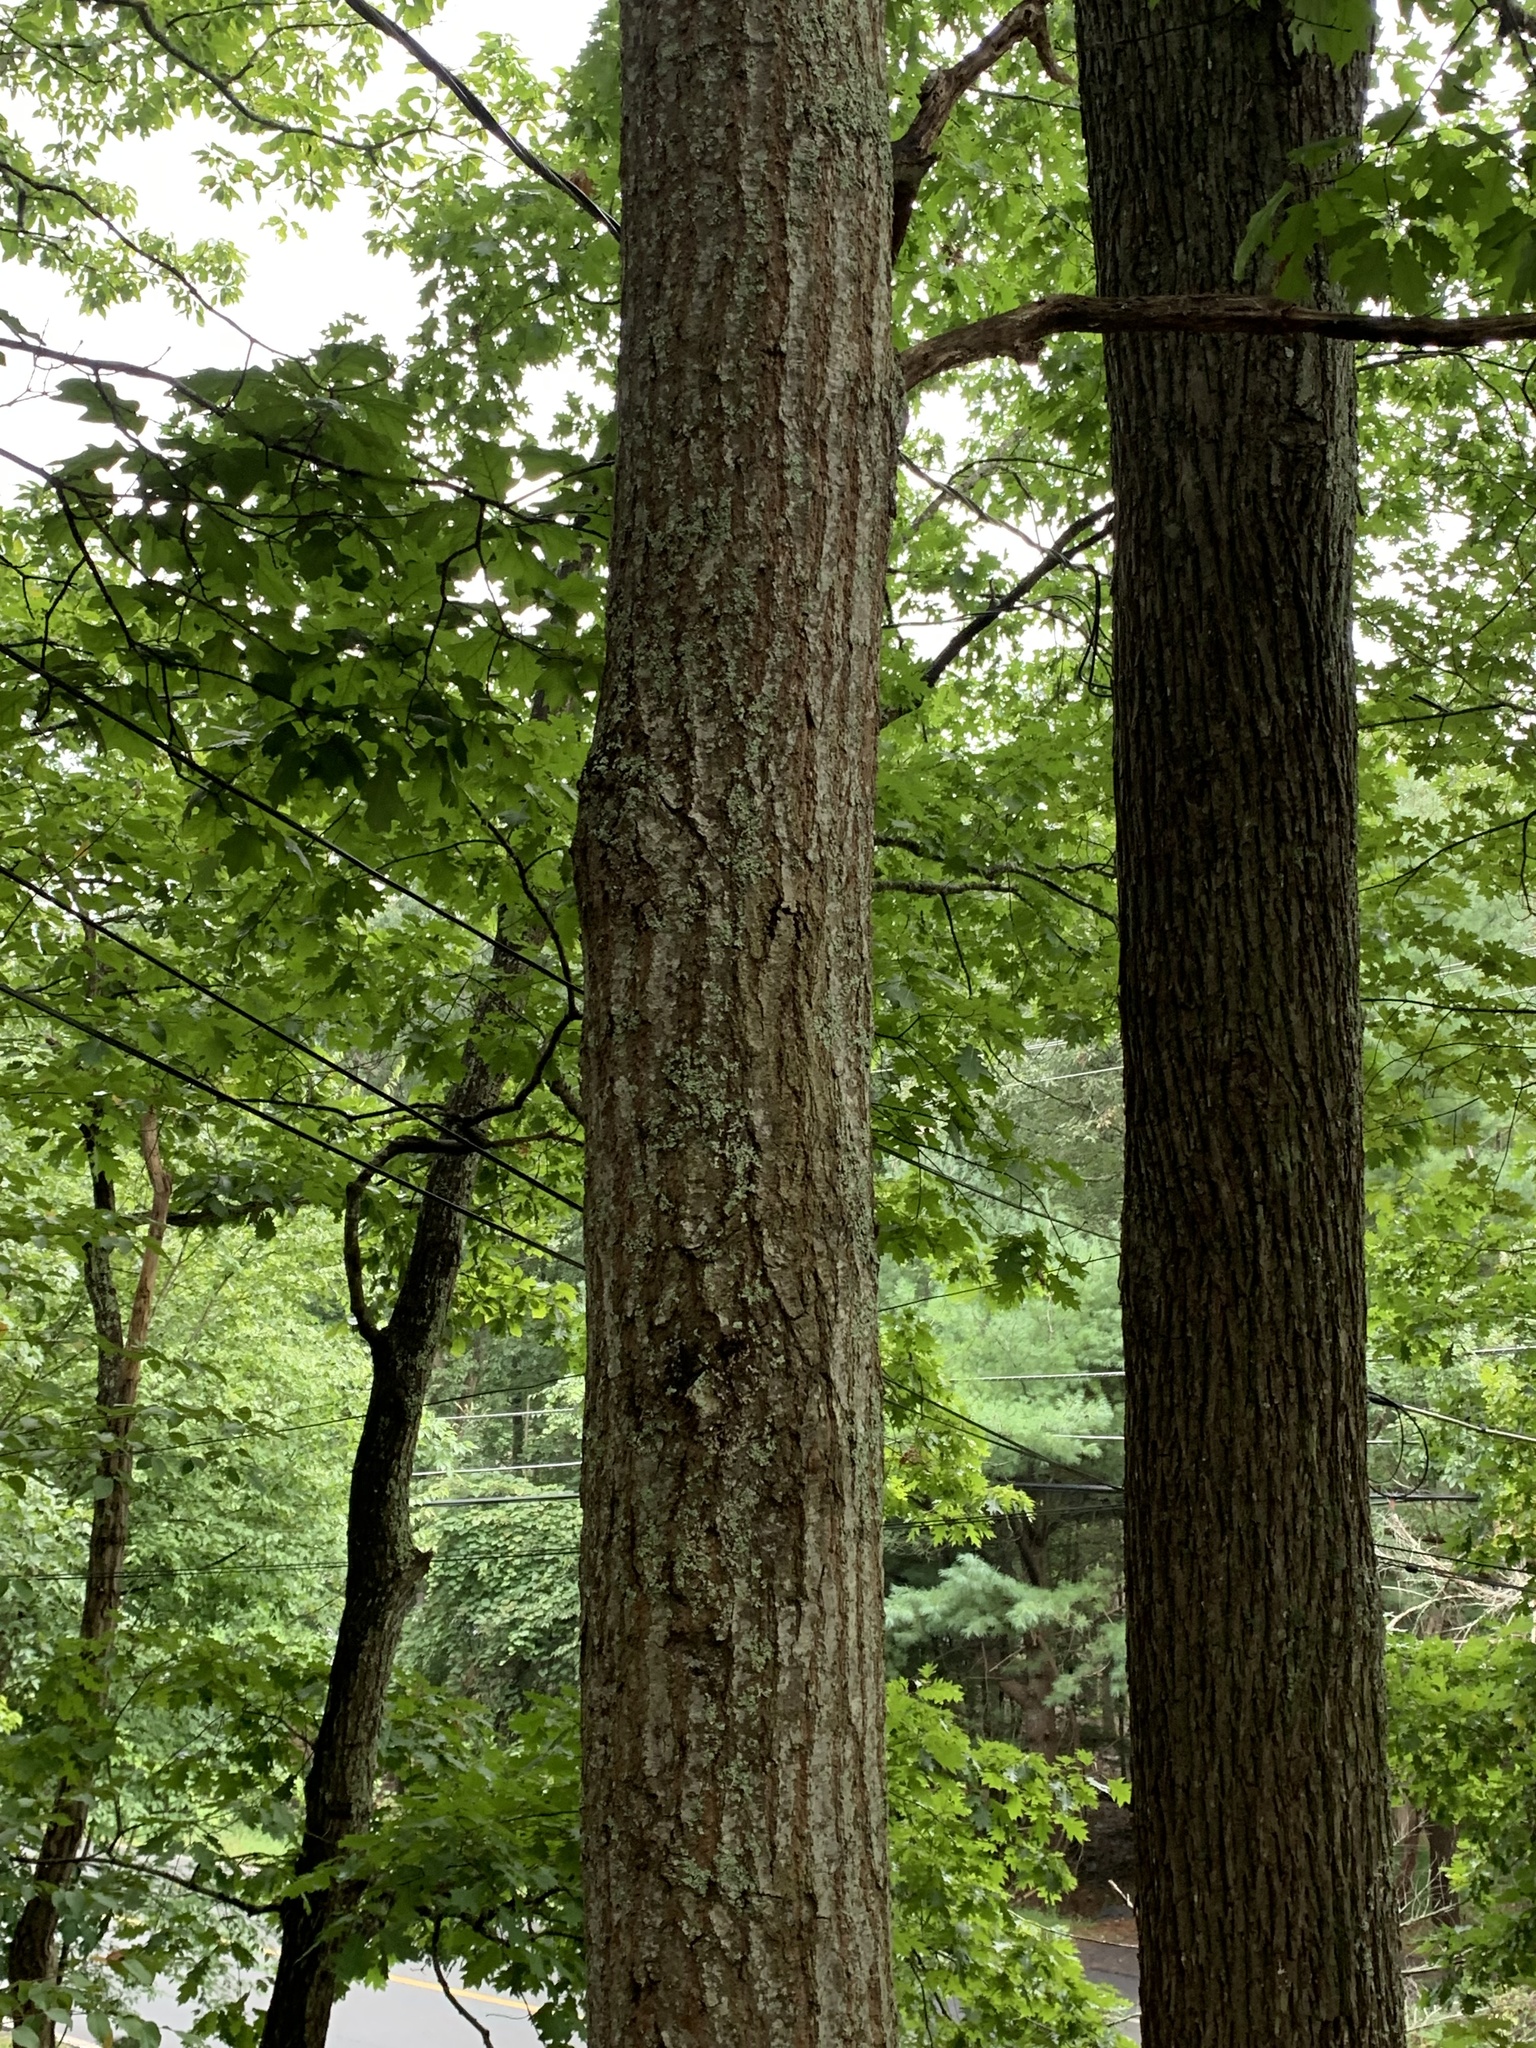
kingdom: Plantae
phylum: Tracheophyta
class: Magnoliopsida
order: Fagales
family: Fagaceae
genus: Quercus
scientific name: Quercus rubra
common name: Red oak
